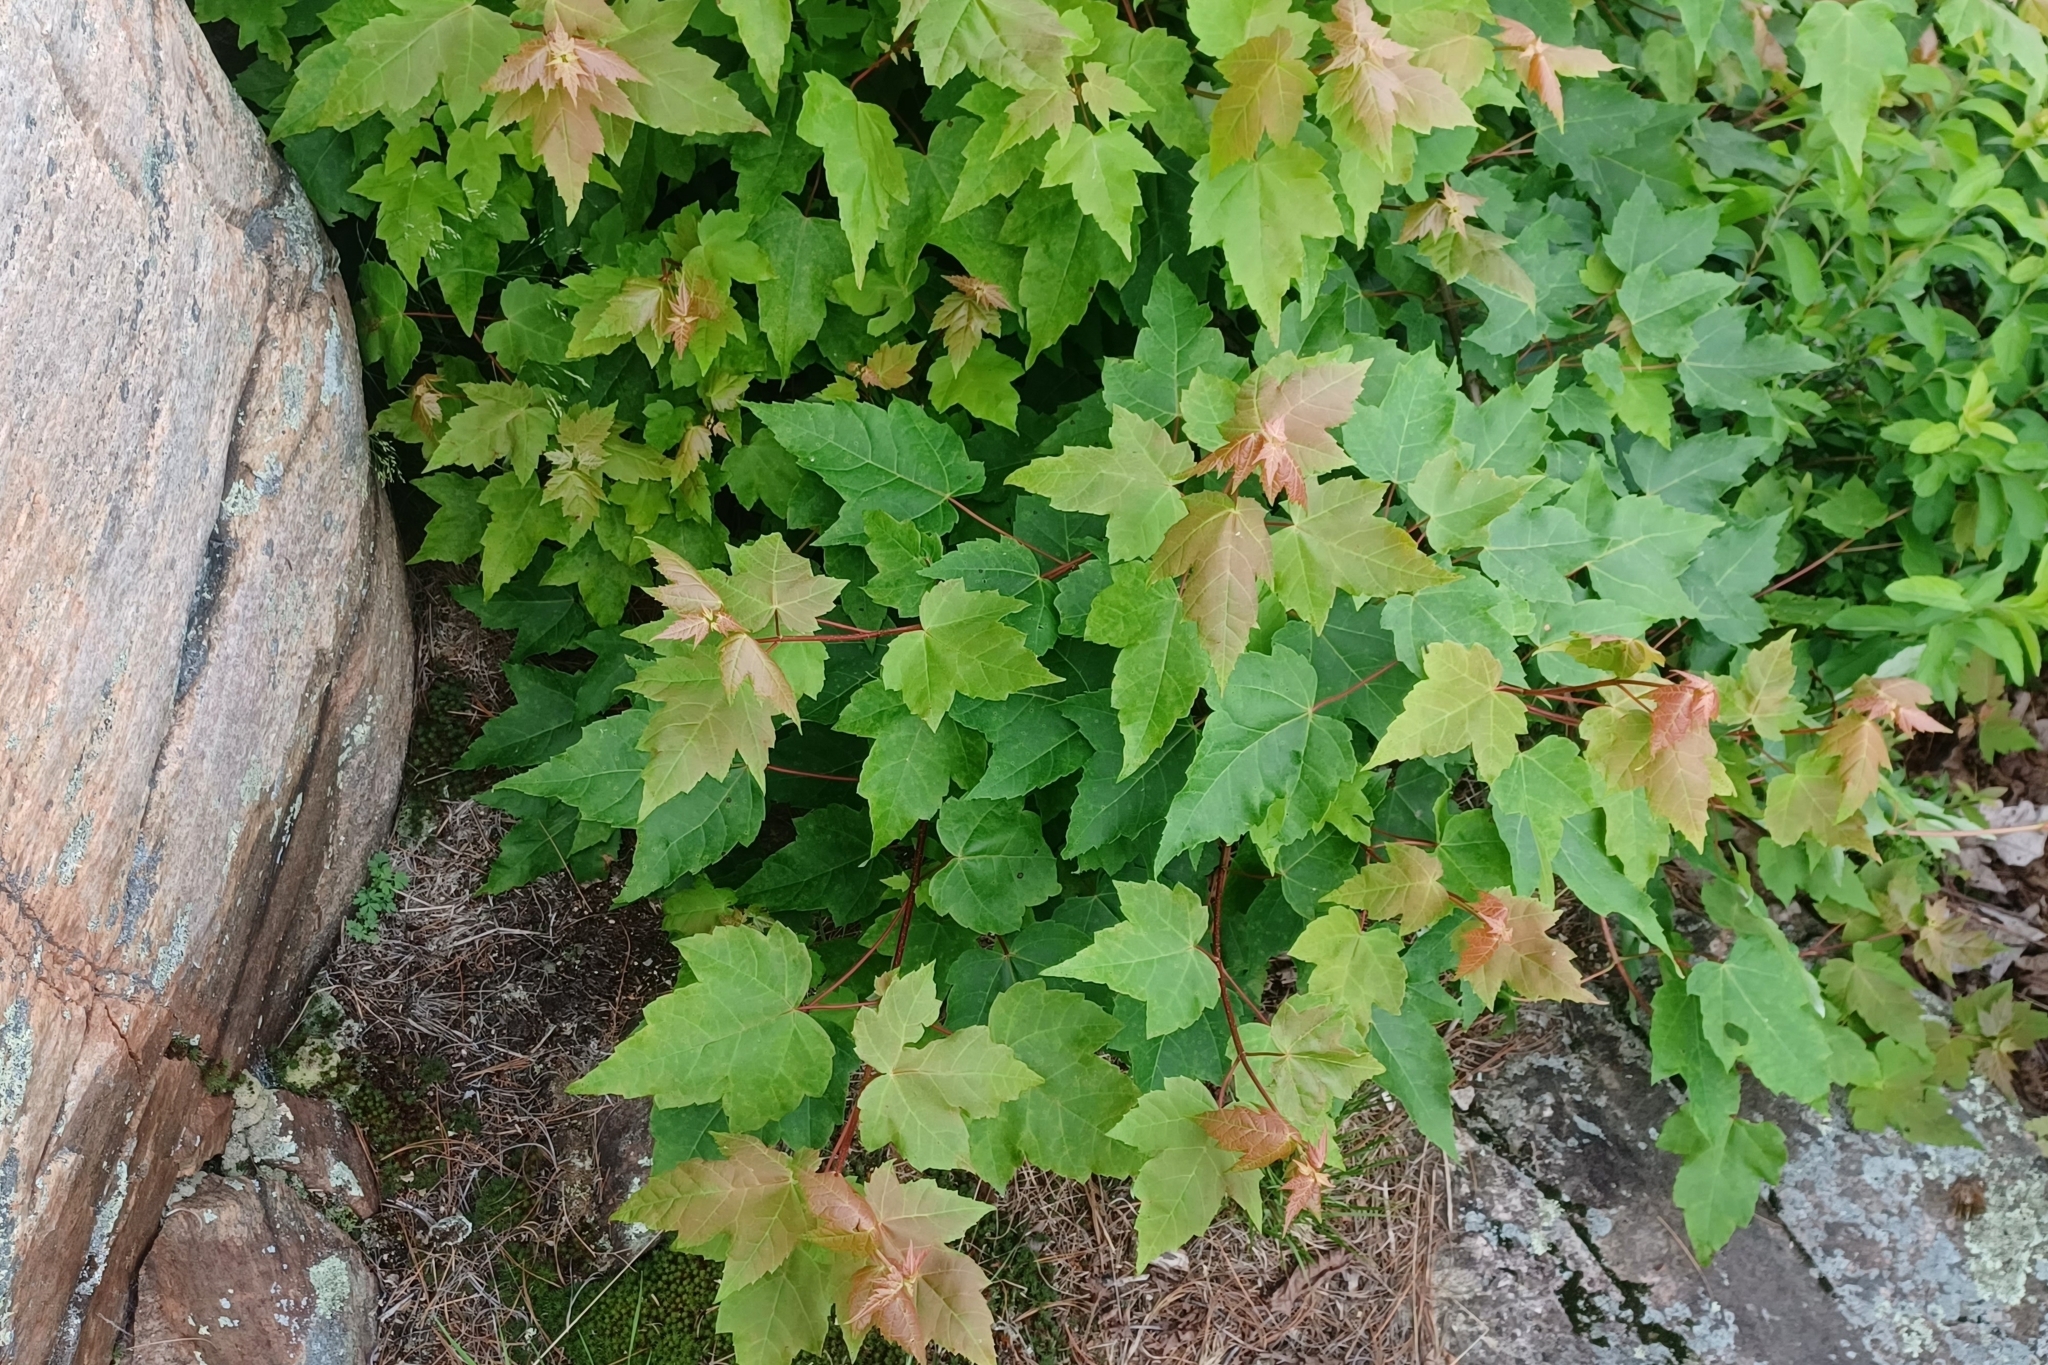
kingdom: Plantae
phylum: Tracheophyta
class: Magnoliopsida
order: Sapindales
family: Sapindaceae
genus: Acer
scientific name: Acer rubrum
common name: Red maple
